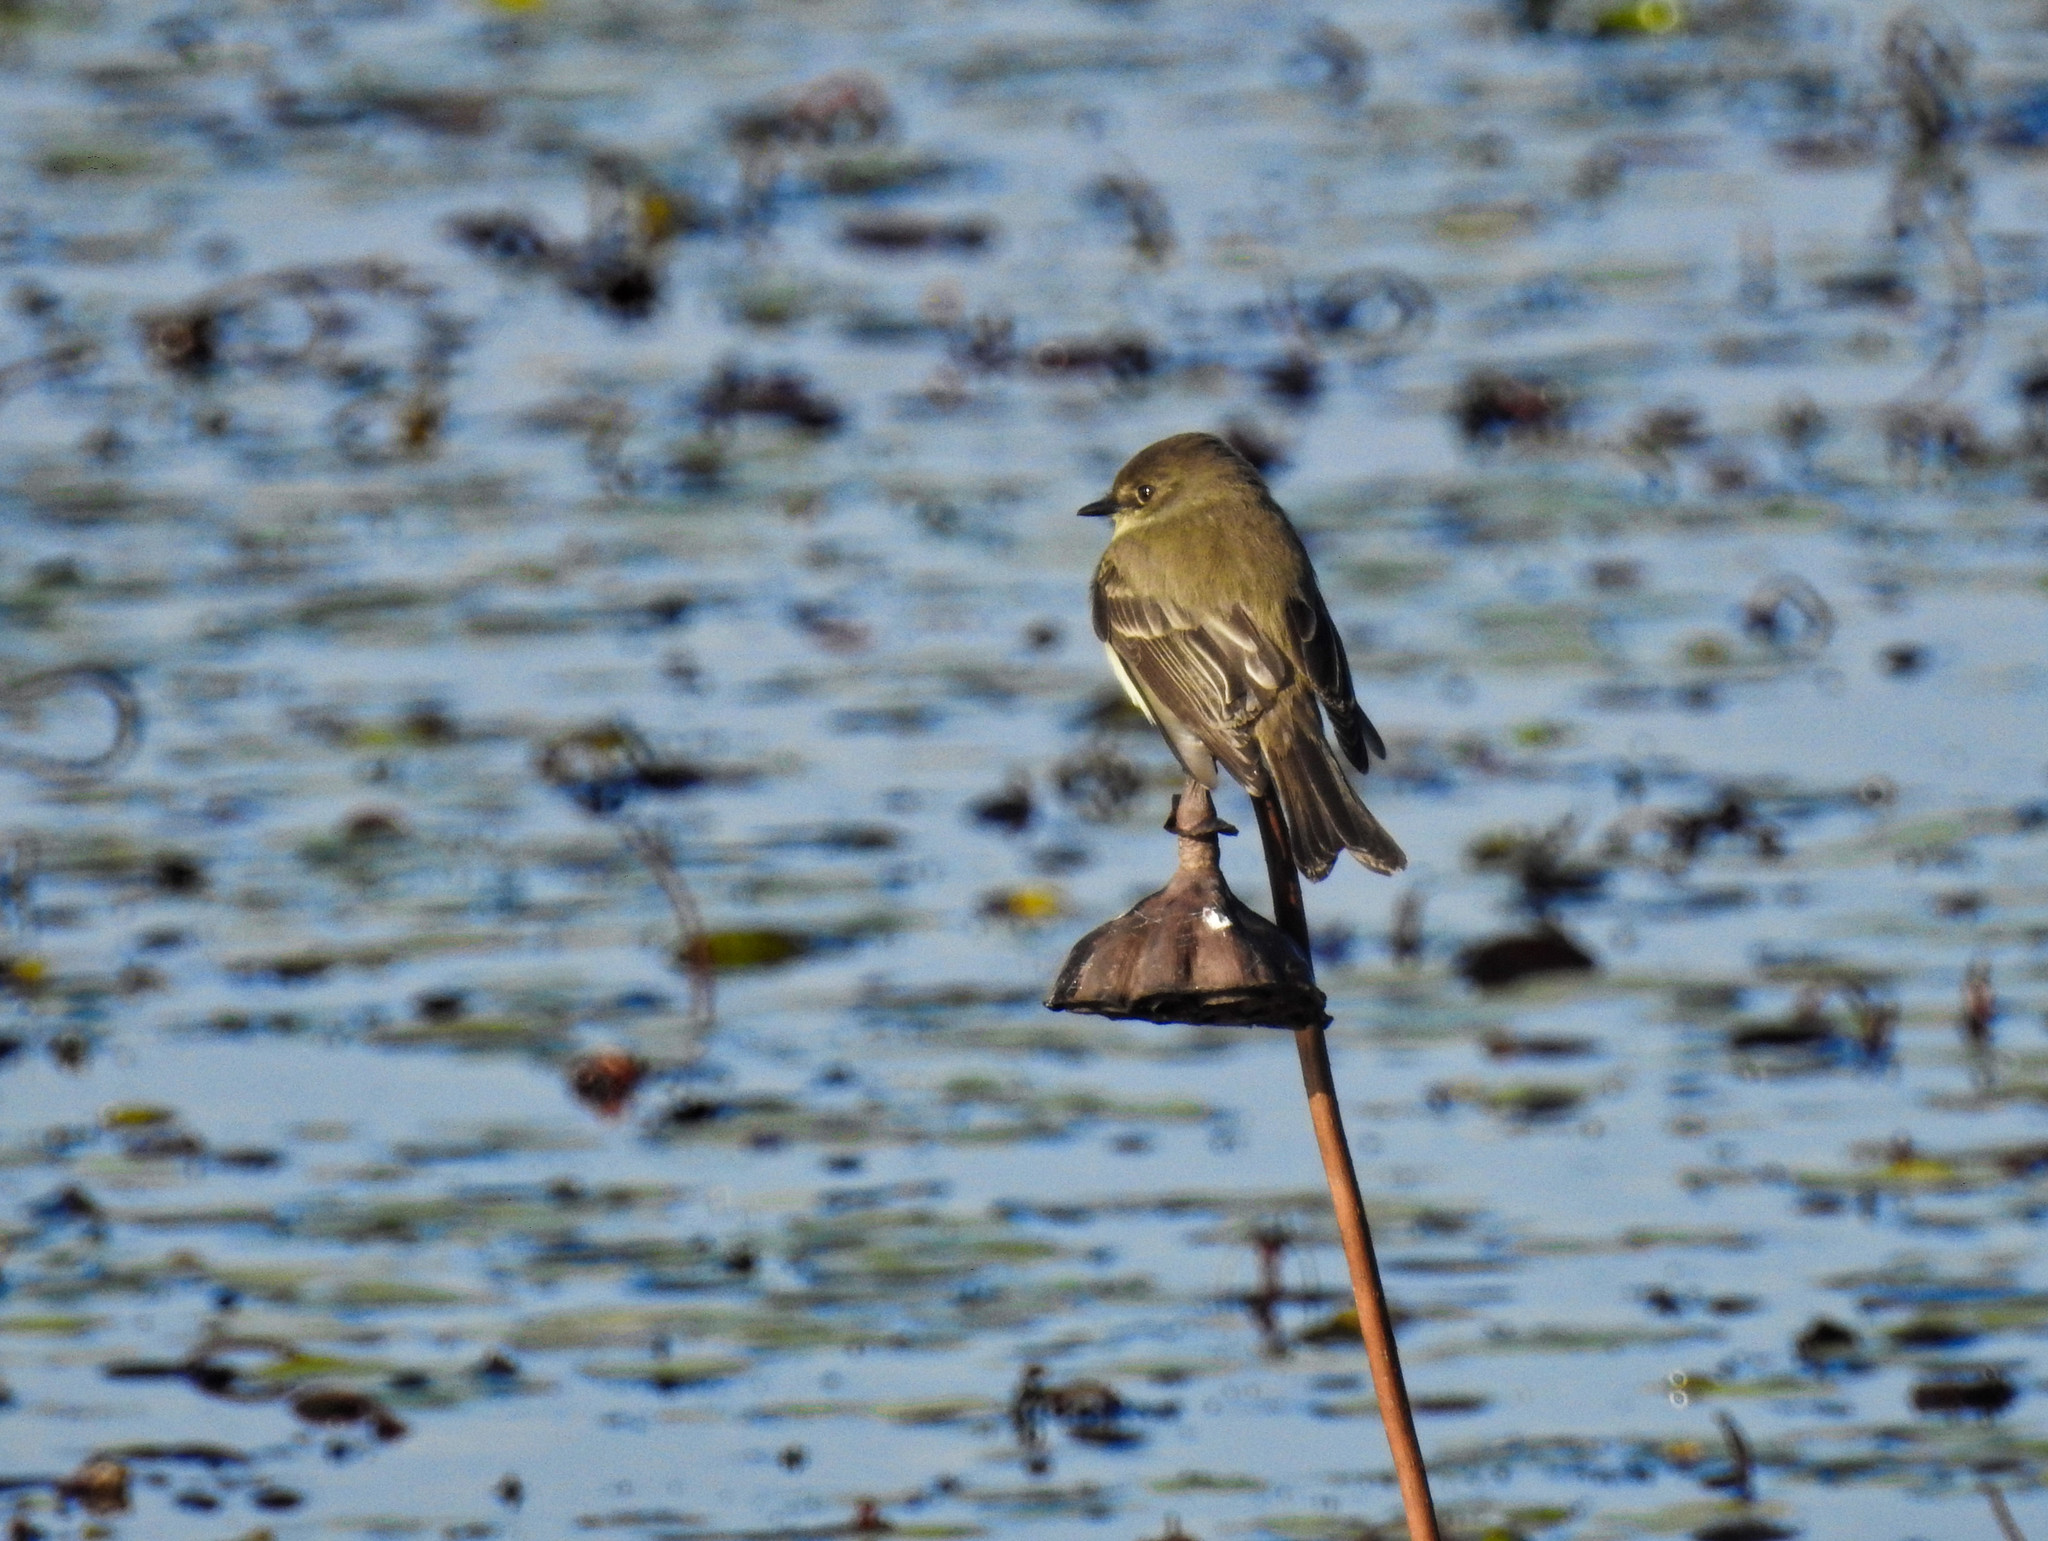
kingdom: Animalia
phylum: Chordata
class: Aves
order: Passeriformes
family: Tyrannidae
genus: Sayornis
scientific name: Sayornis phoebe
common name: Eastern phoebe
